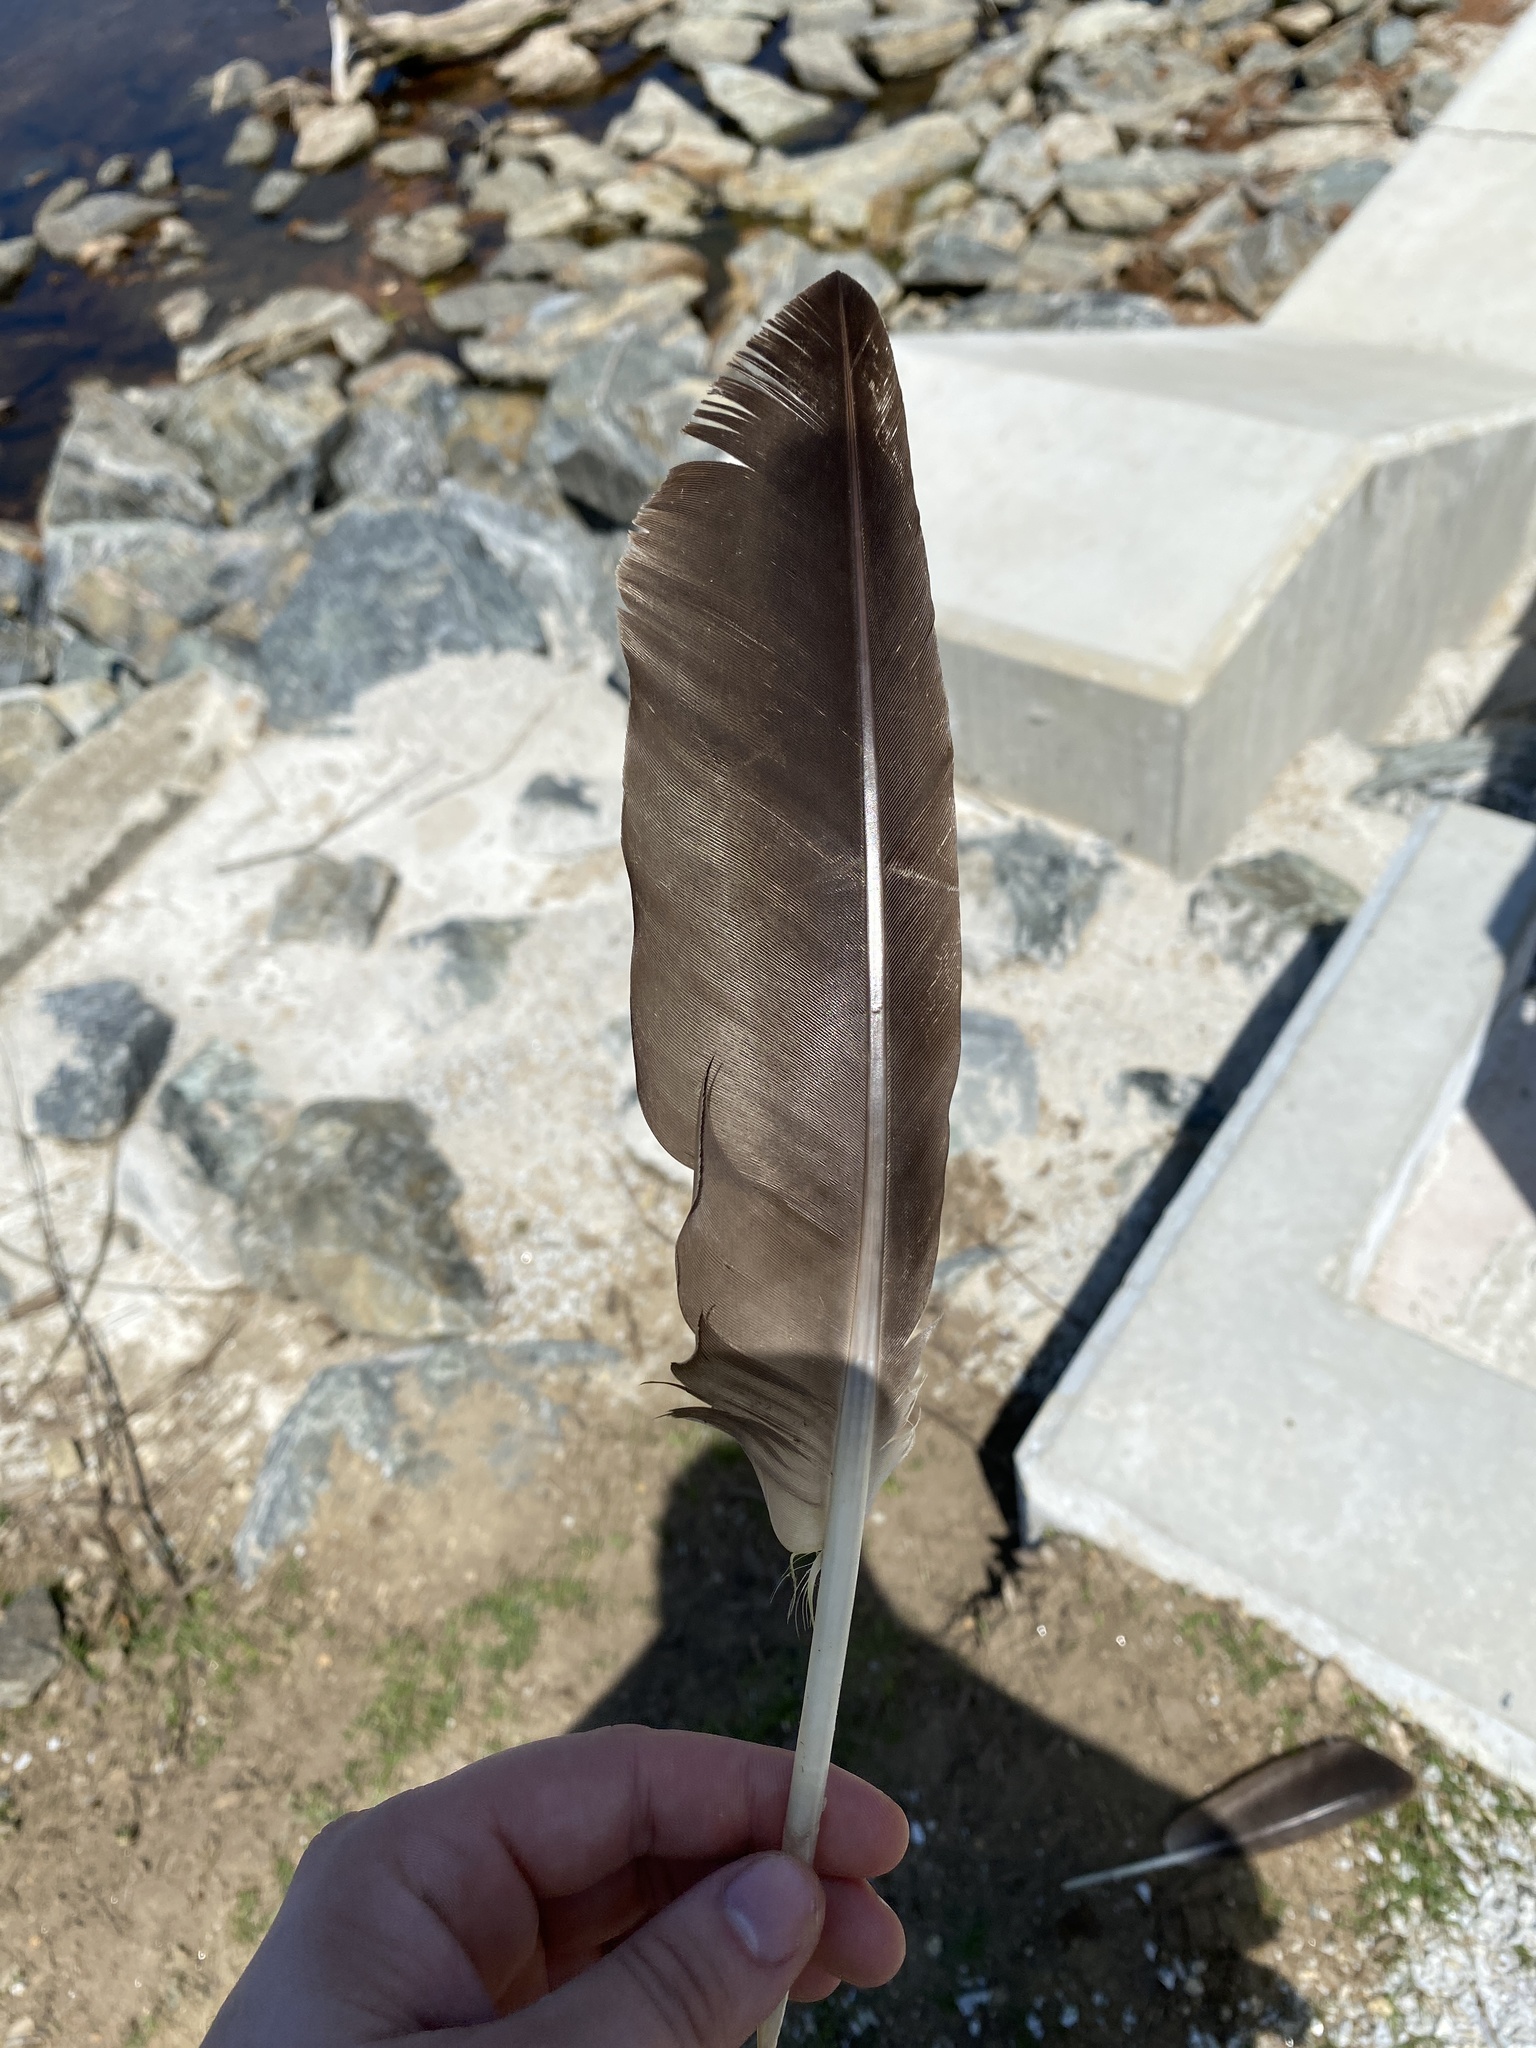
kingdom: Animalia
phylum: Chordata
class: Aves
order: Anseriformes
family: Anatidae
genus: Branta
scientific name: Branta canadensis
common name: Canada goose
